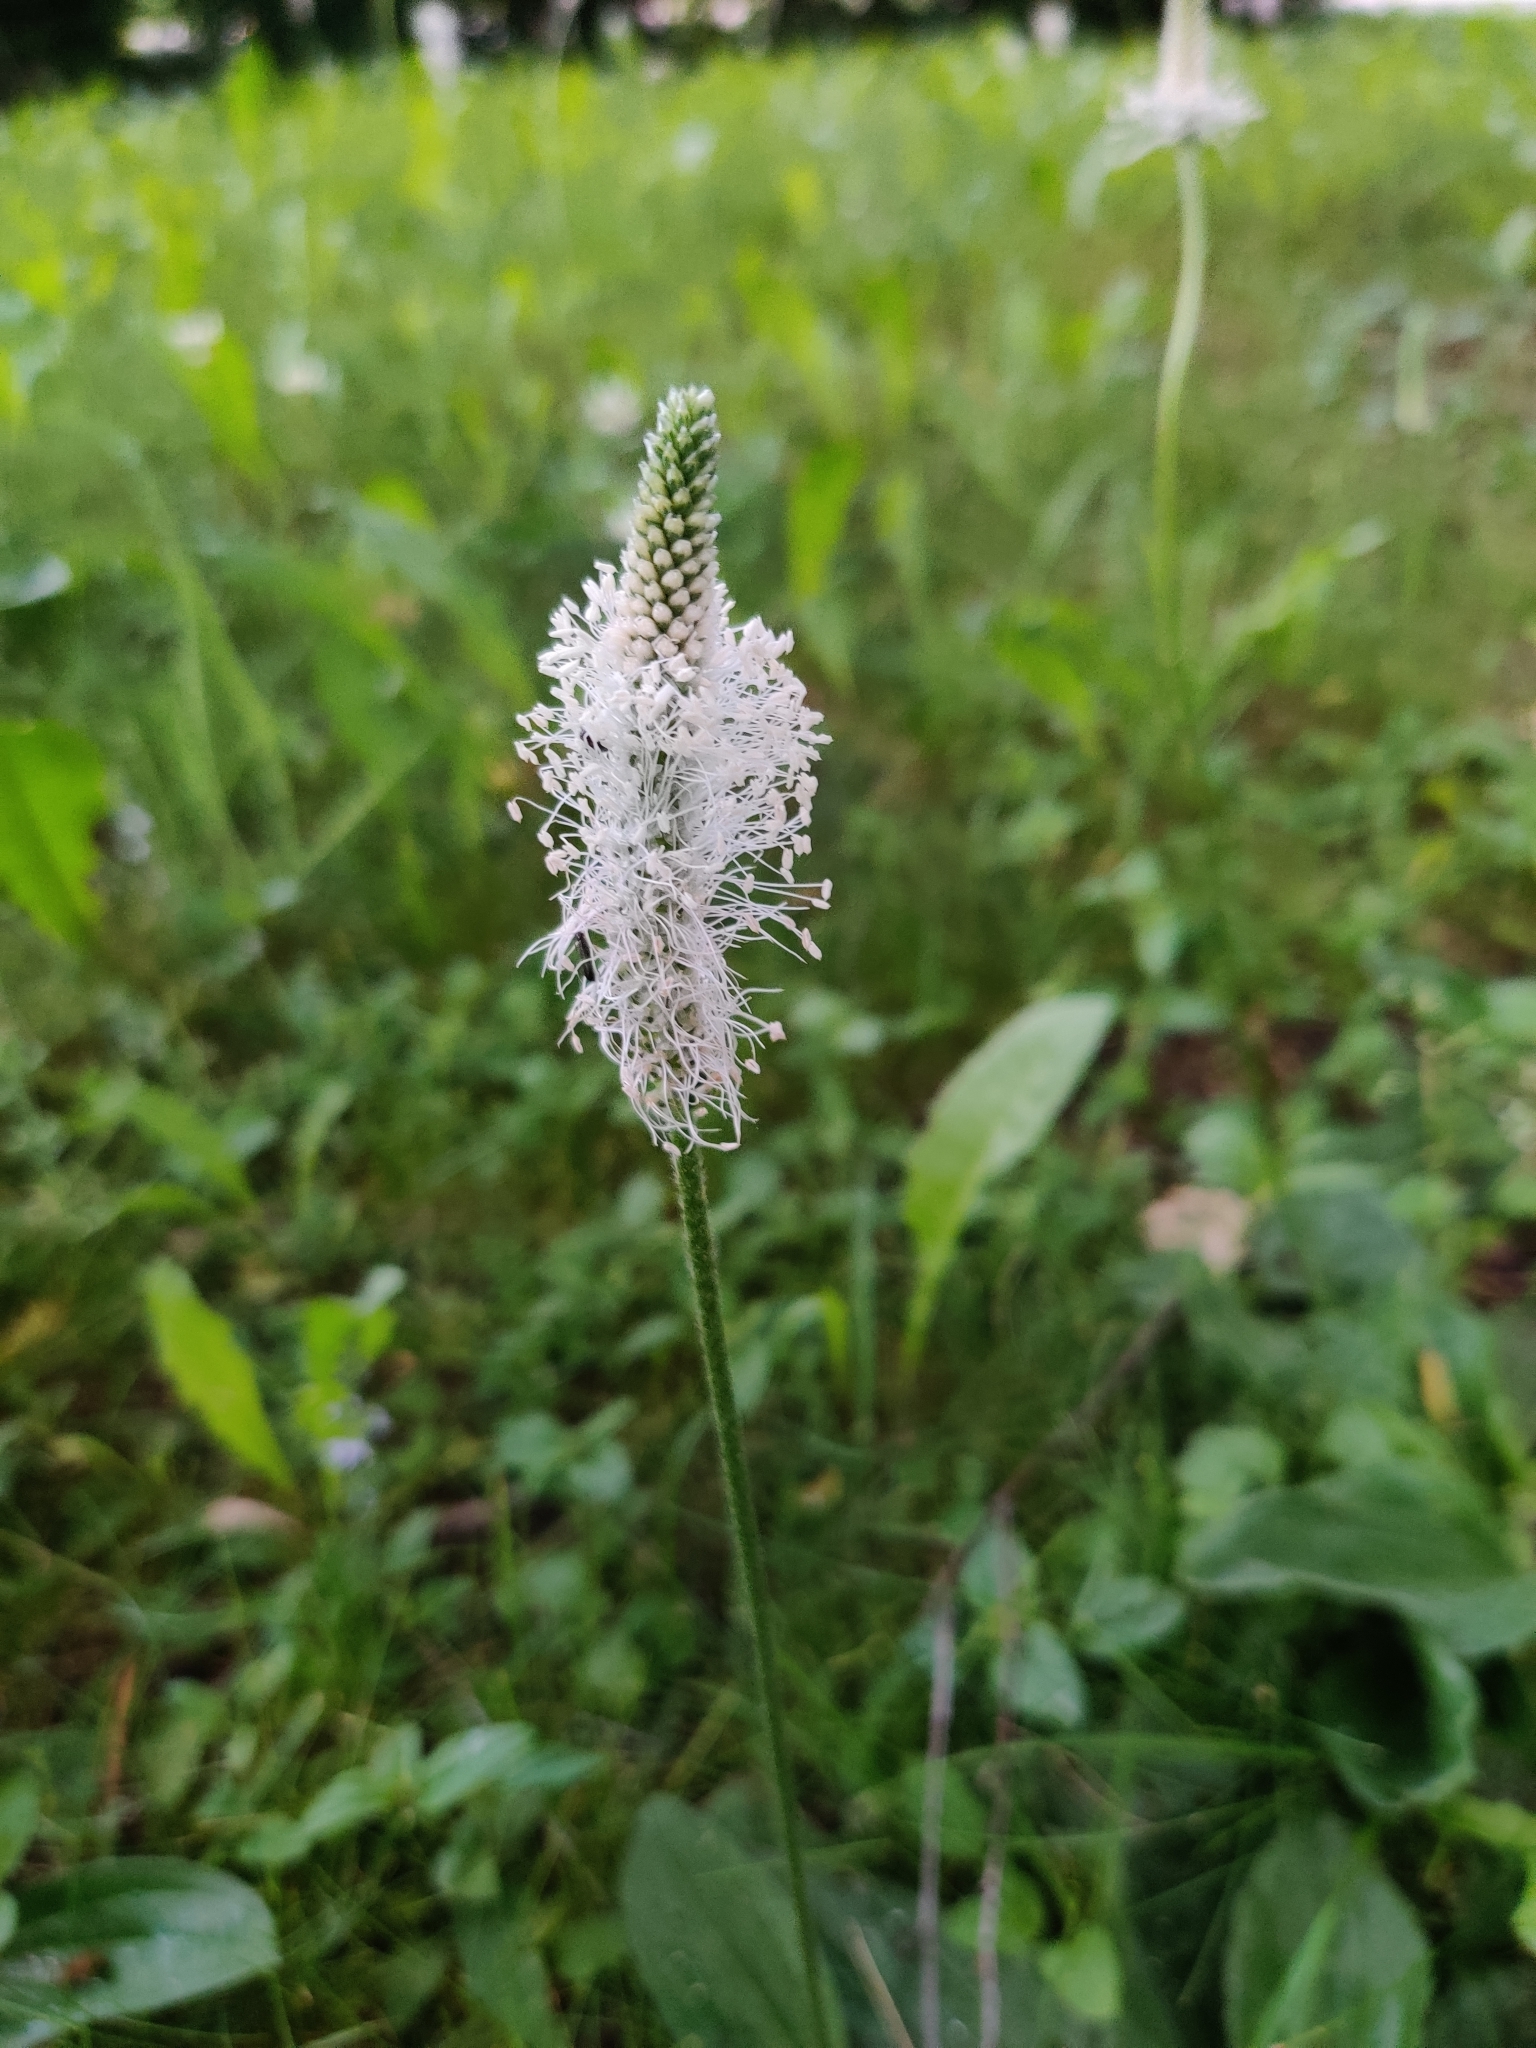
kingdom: Plantae
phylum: Tracheophyta
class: Magnoliopsida
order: Lamiales
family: Plantaginaceae
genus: Plantago
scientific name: Plantago media
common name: Hoary plantain
